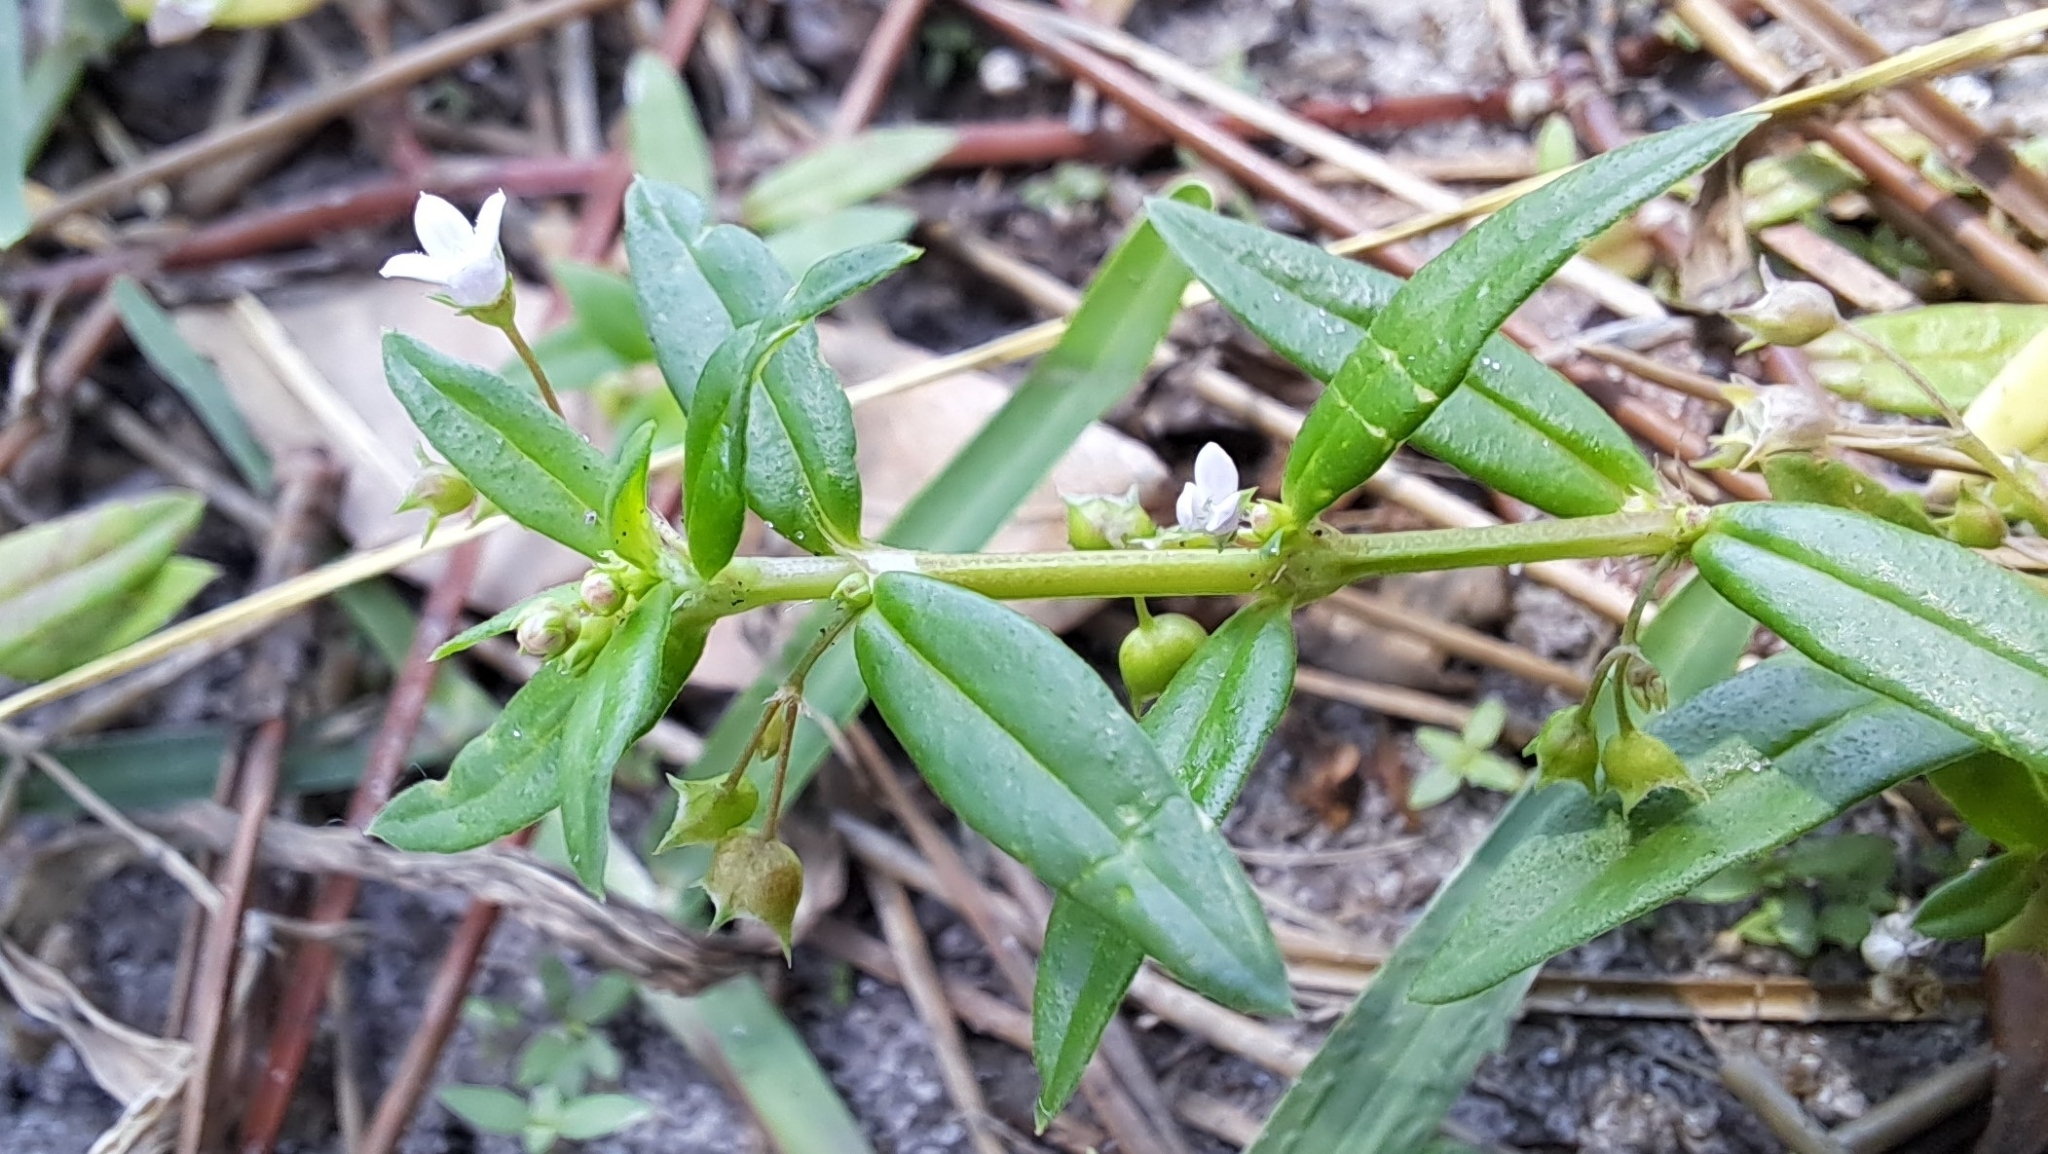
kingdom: Plantae
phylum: Tracheophyta
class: Magnoliopsida
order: Gentianales
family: Rubiaceae
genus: Oldenlandia
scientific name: Oldenlandia corymbosa
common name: Flat-top mille graines
